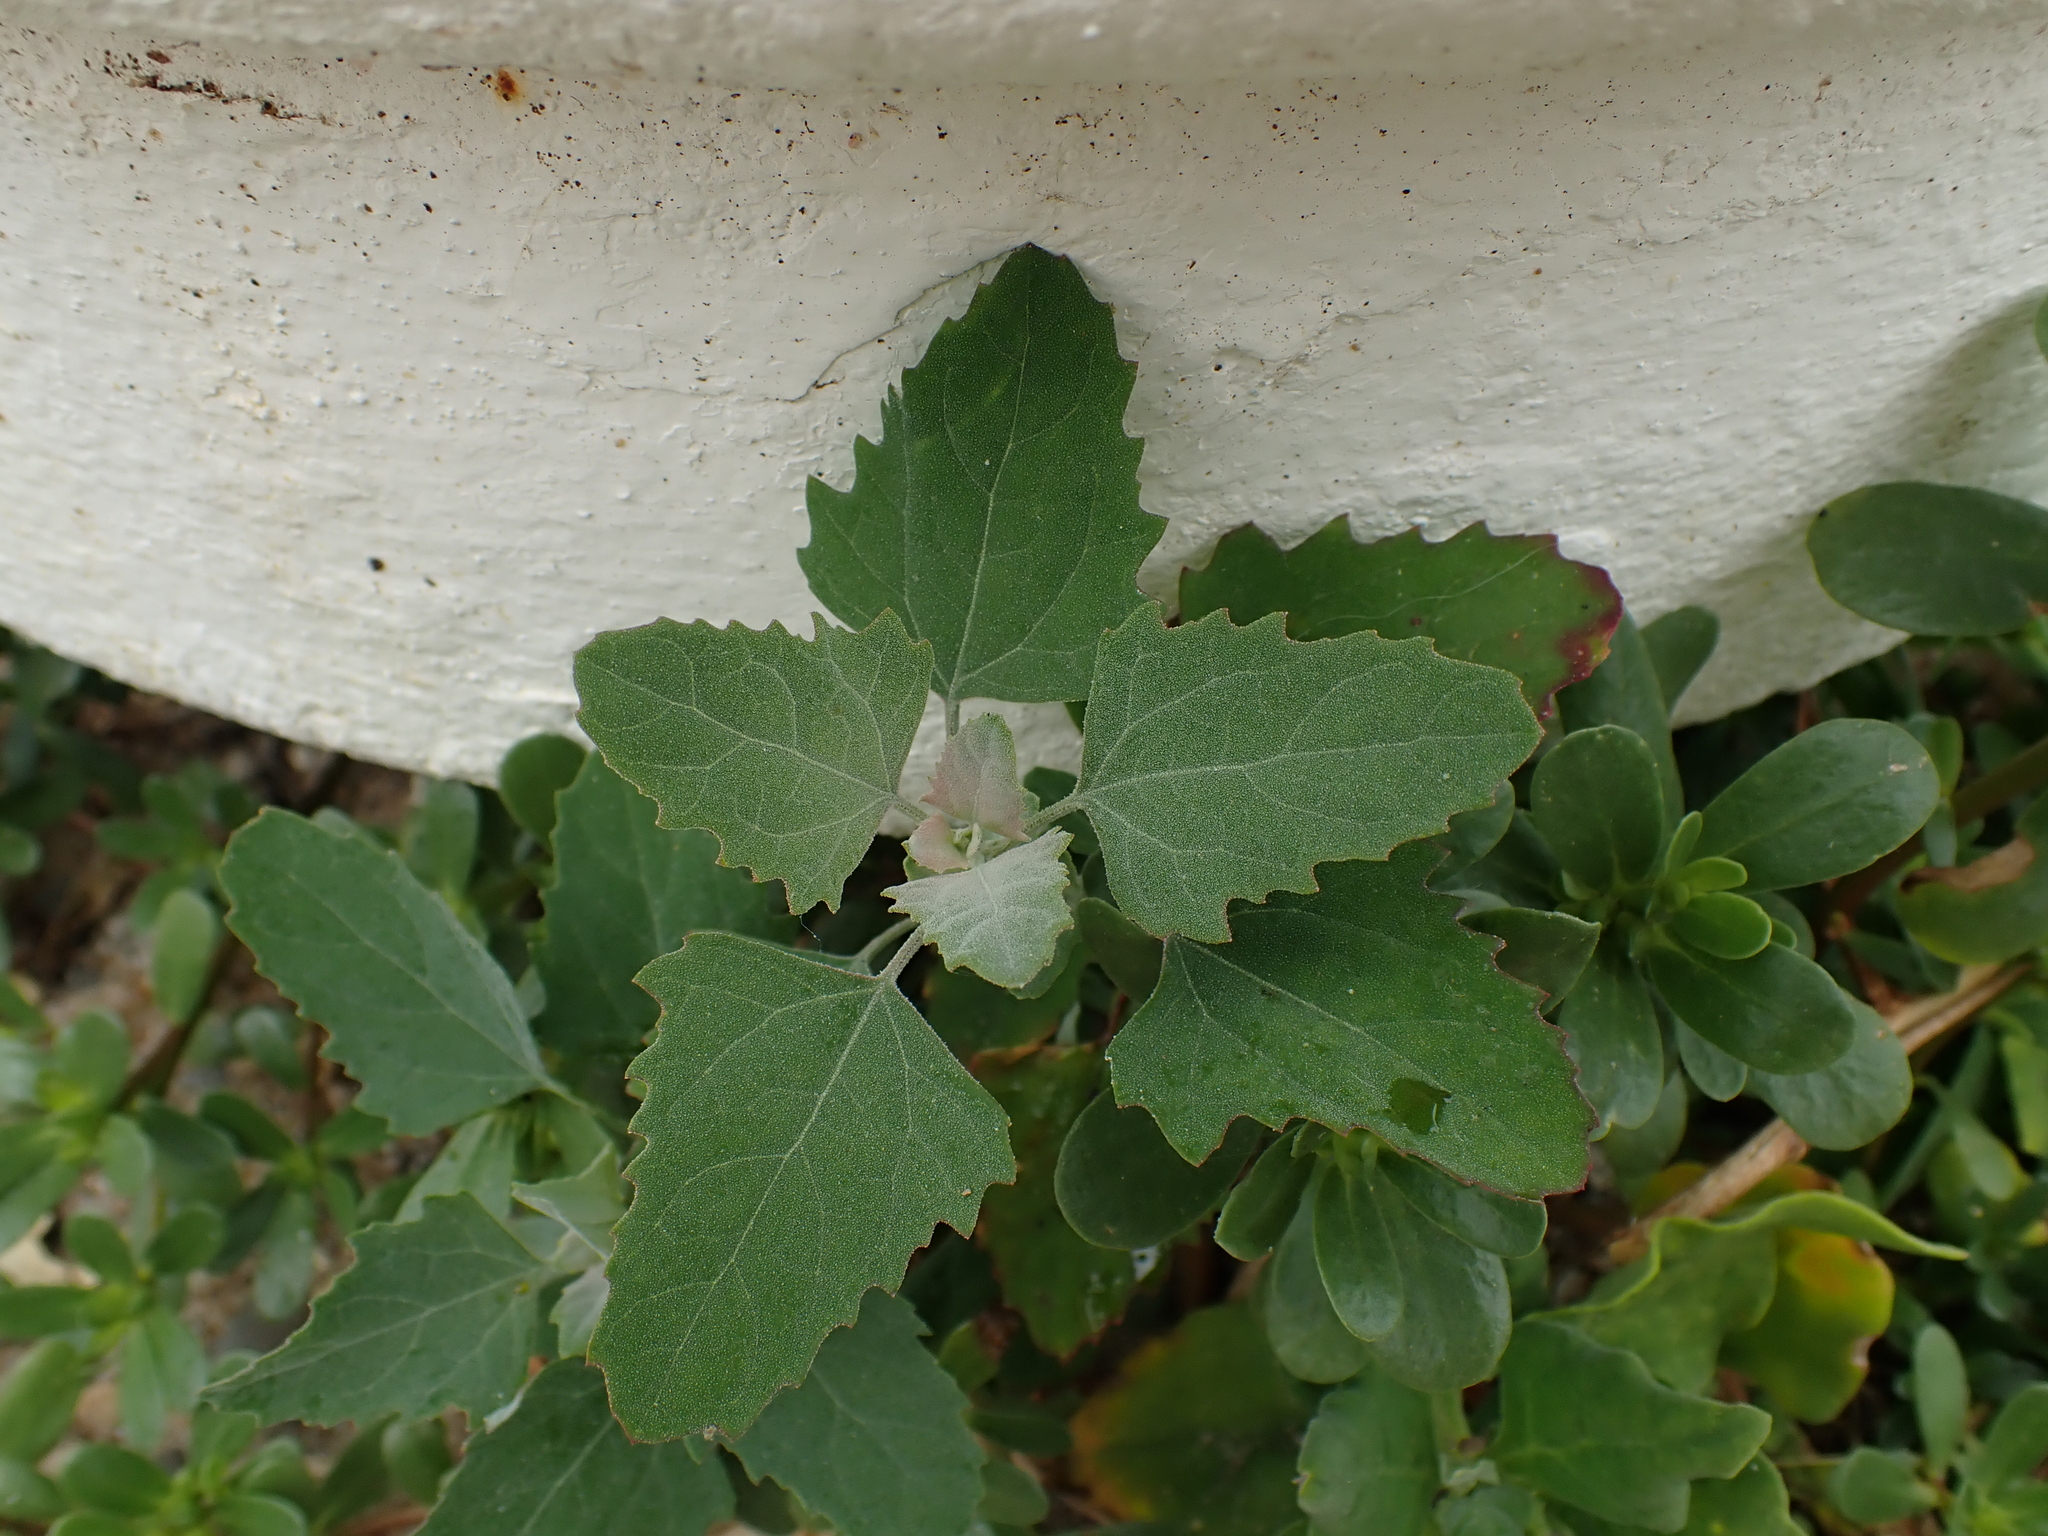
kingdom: Plantae
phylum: Tracheophyta
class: Magnoliopsida
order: Caryophyllales
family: Amaranthaceae
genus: Chenopodium
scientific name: Chenopodium album
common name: Fat-hen
